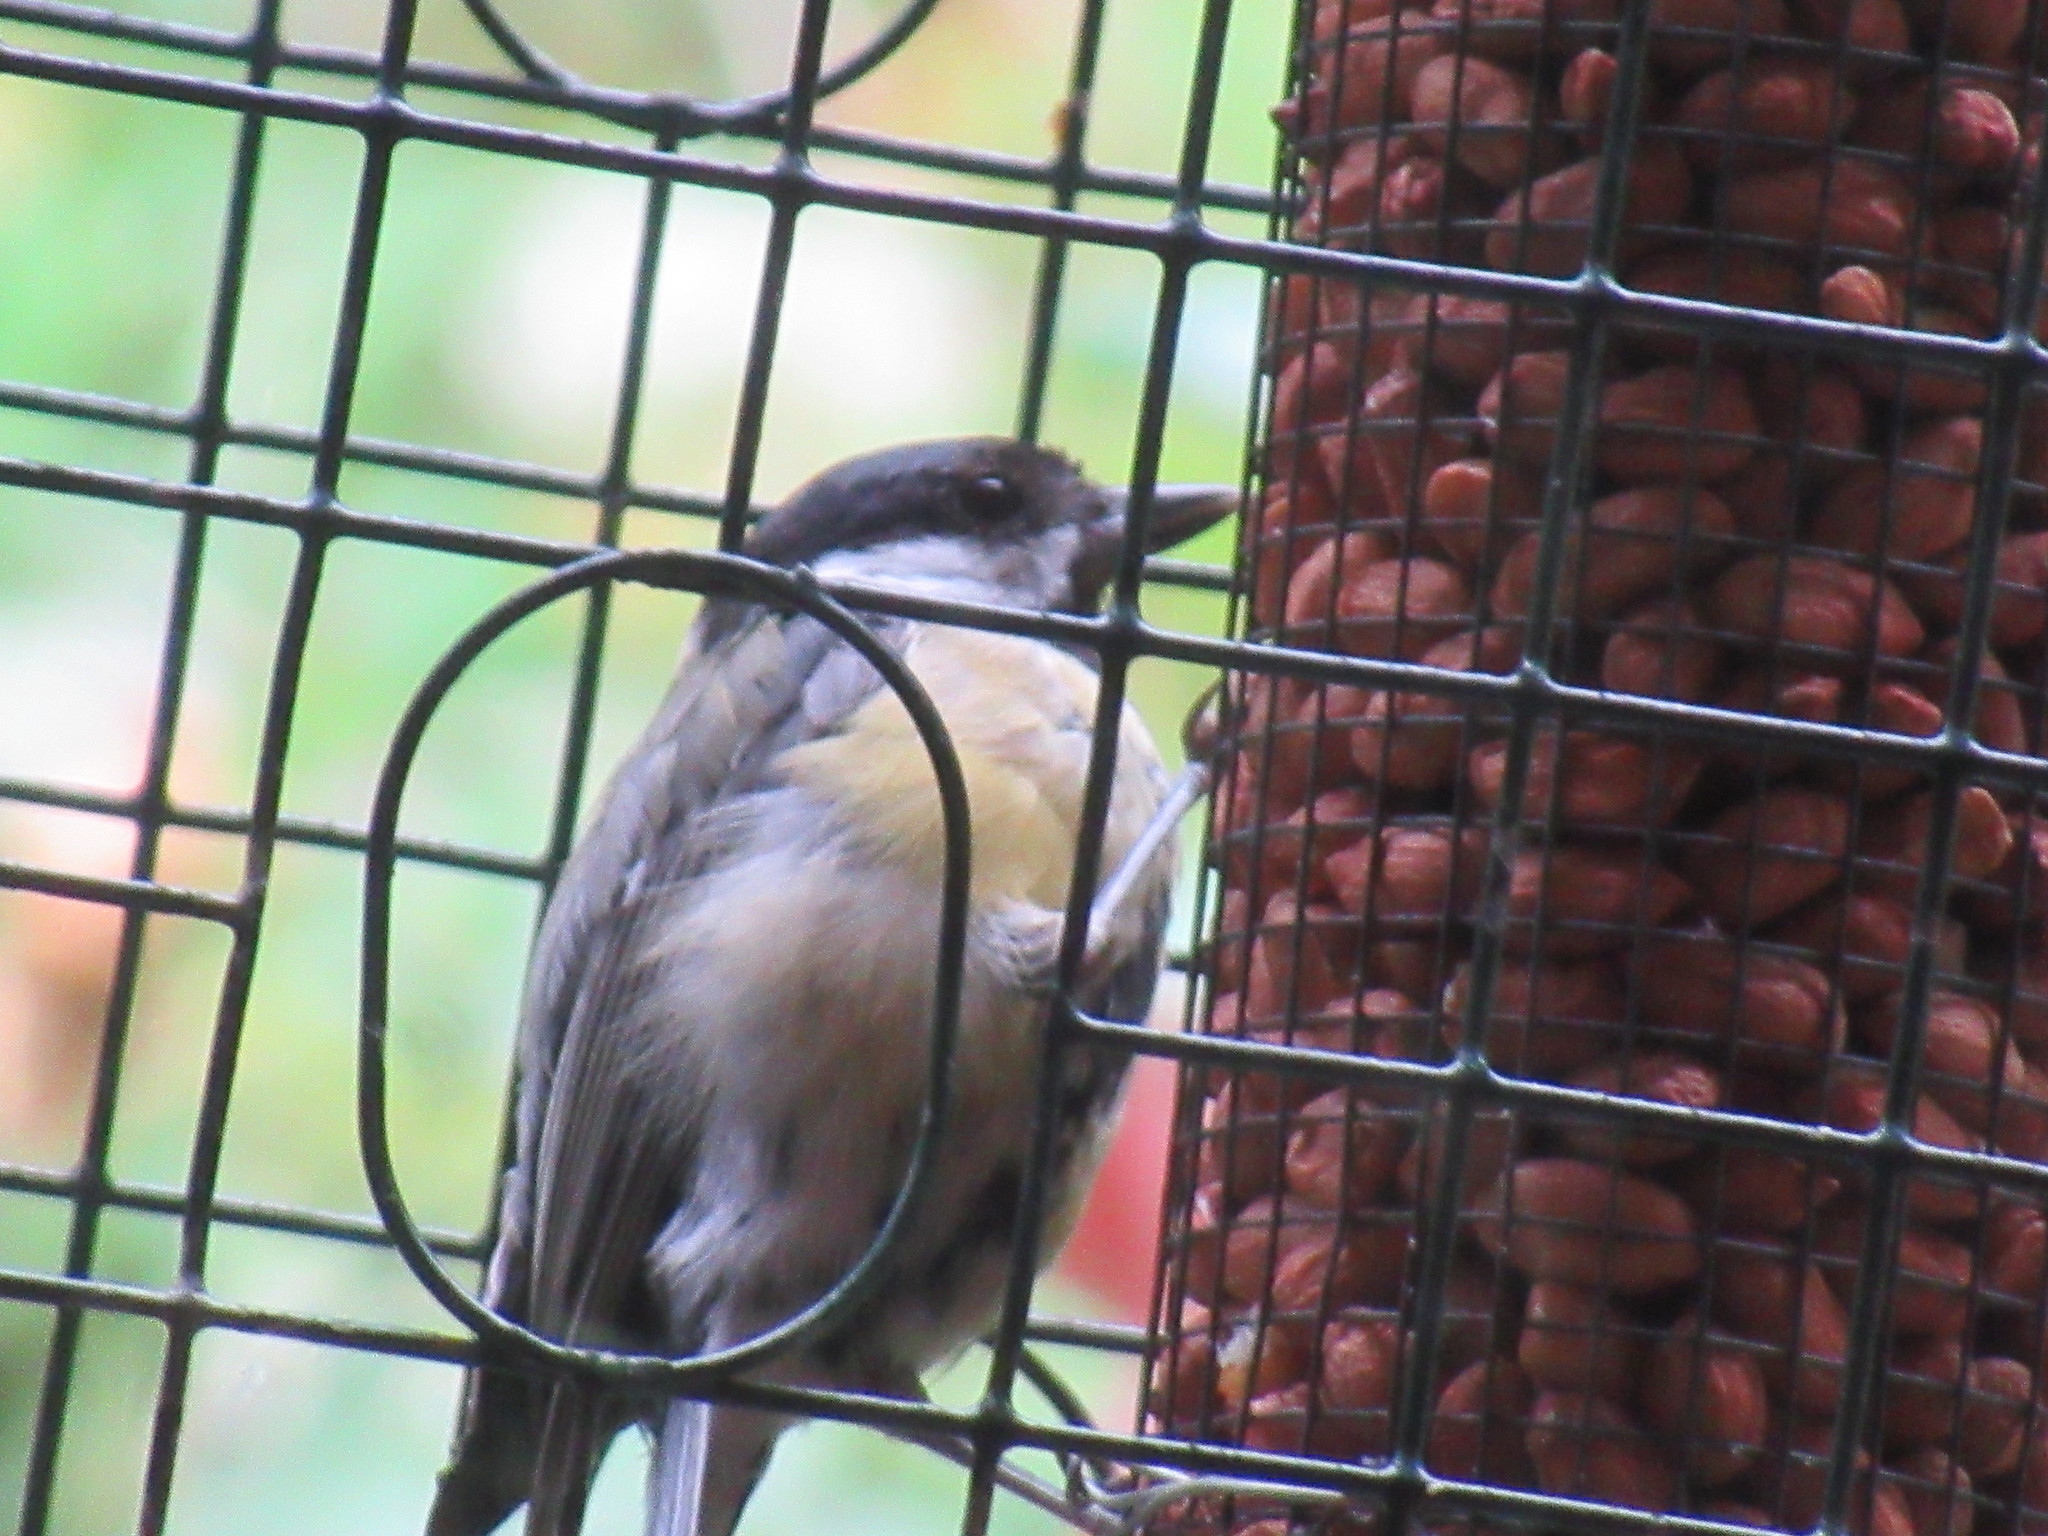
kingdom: Animalia
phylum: Chordata
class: Aves
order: Passeriformes
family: Paridae
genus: Parus
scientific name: Parus major
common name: Great tit
